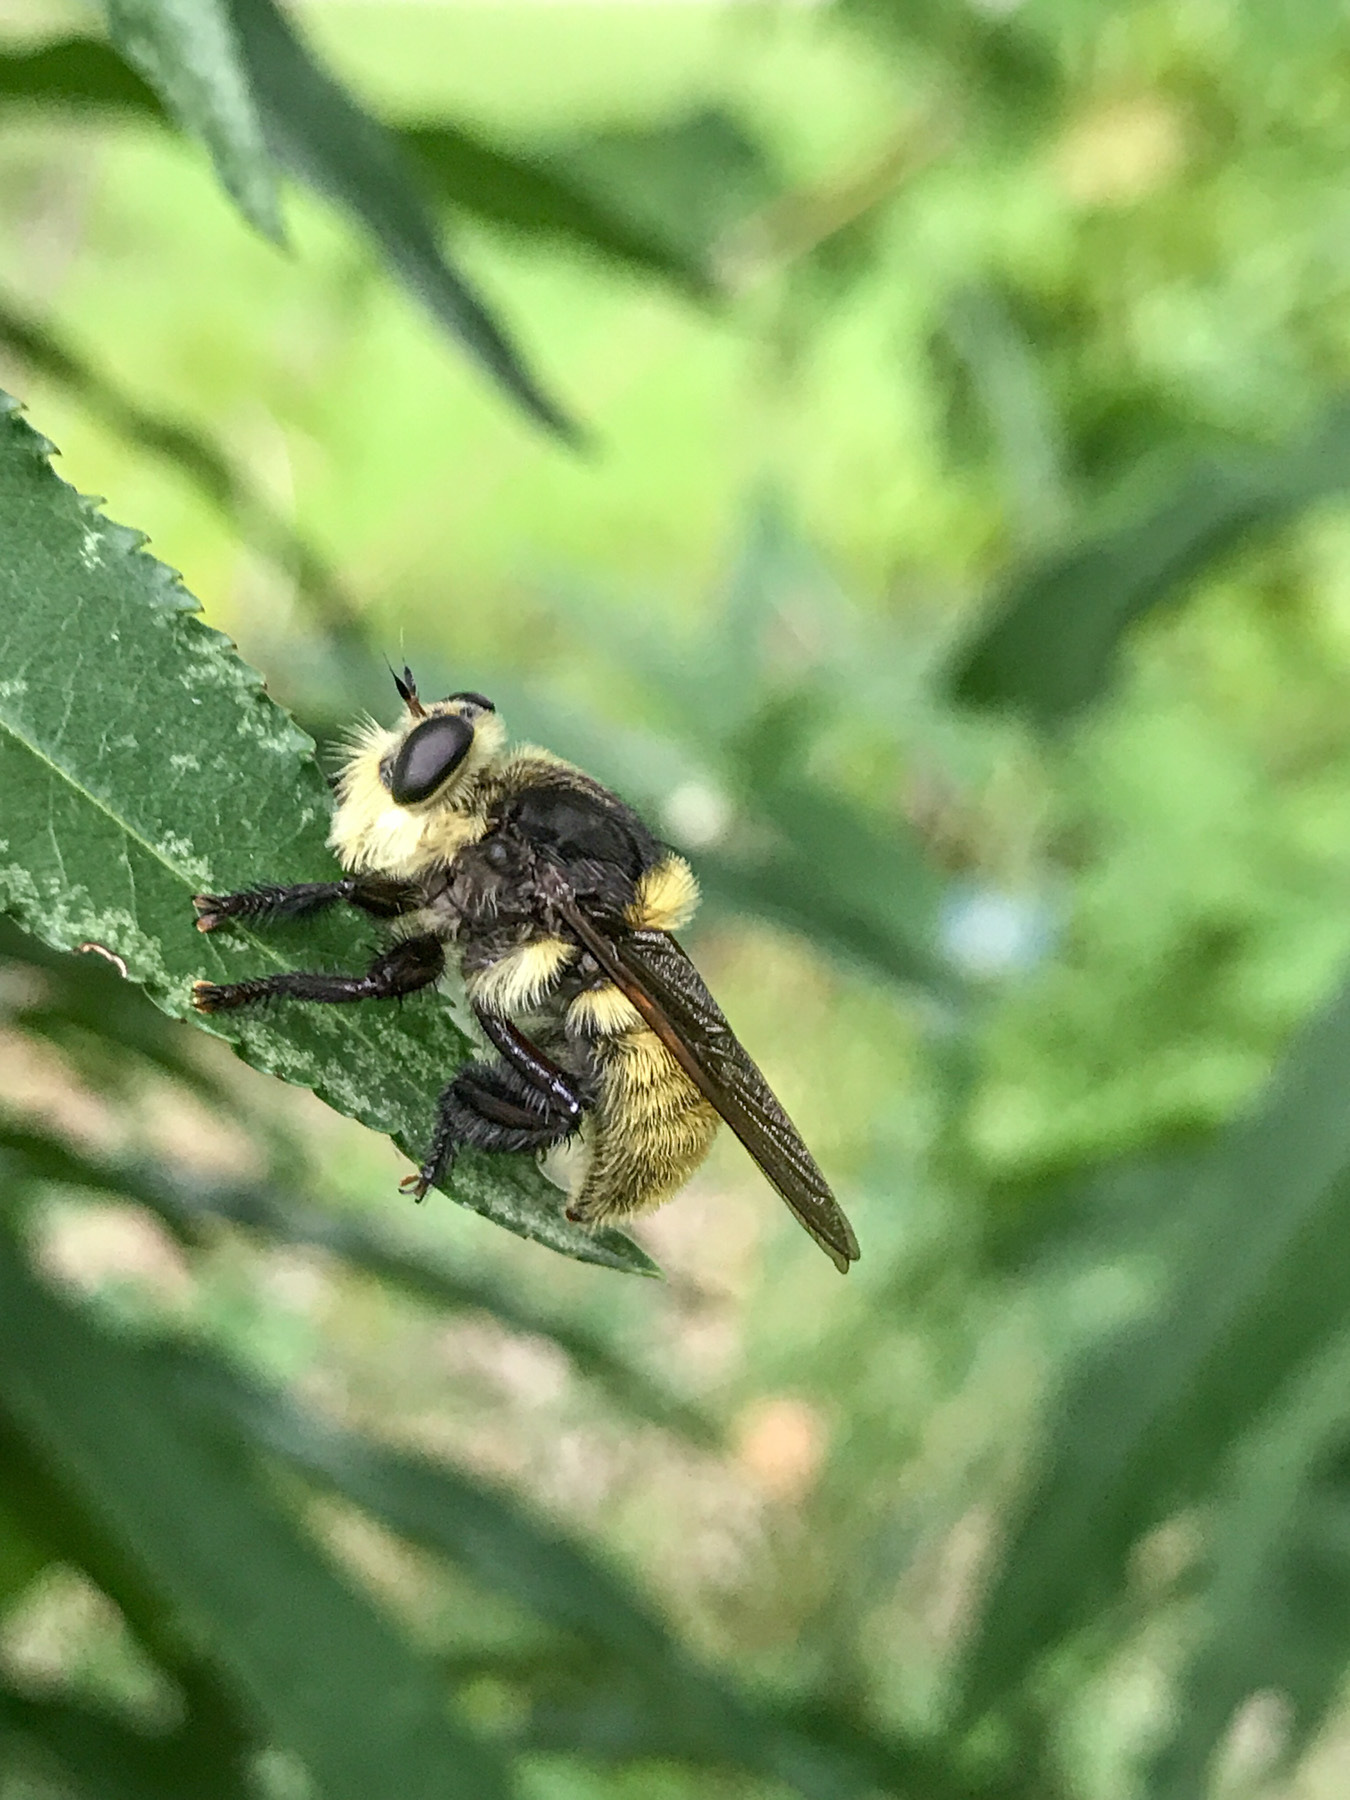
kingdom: Animalia
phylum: Arthropoda
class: Insecta
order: Diptera
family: Asilidae
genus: Mallophora
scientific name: Mallophora fautrix
